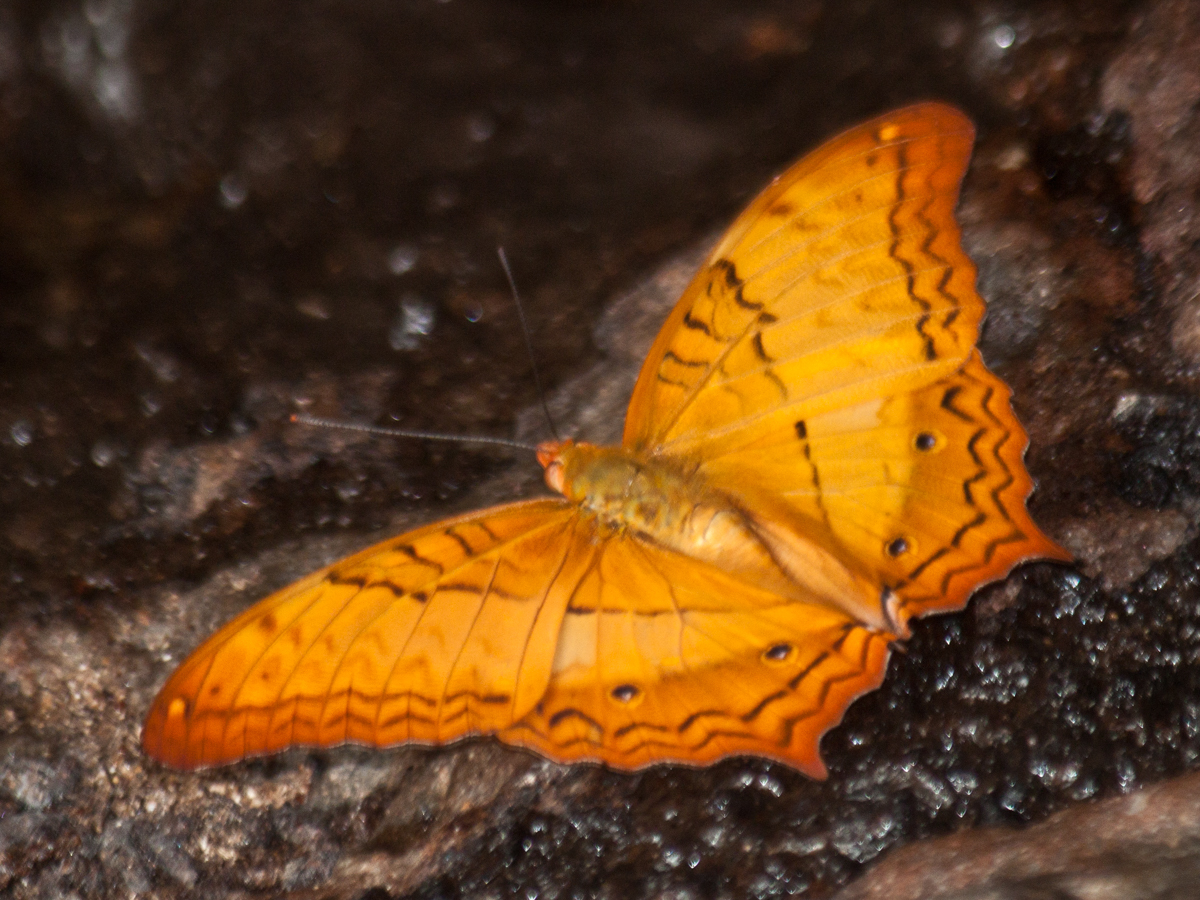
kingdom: Animalia
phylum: Arthropoda
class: Insecta
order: Lepidoptera
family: Nymphalidae
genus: Vindula
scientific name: Vindula erota
